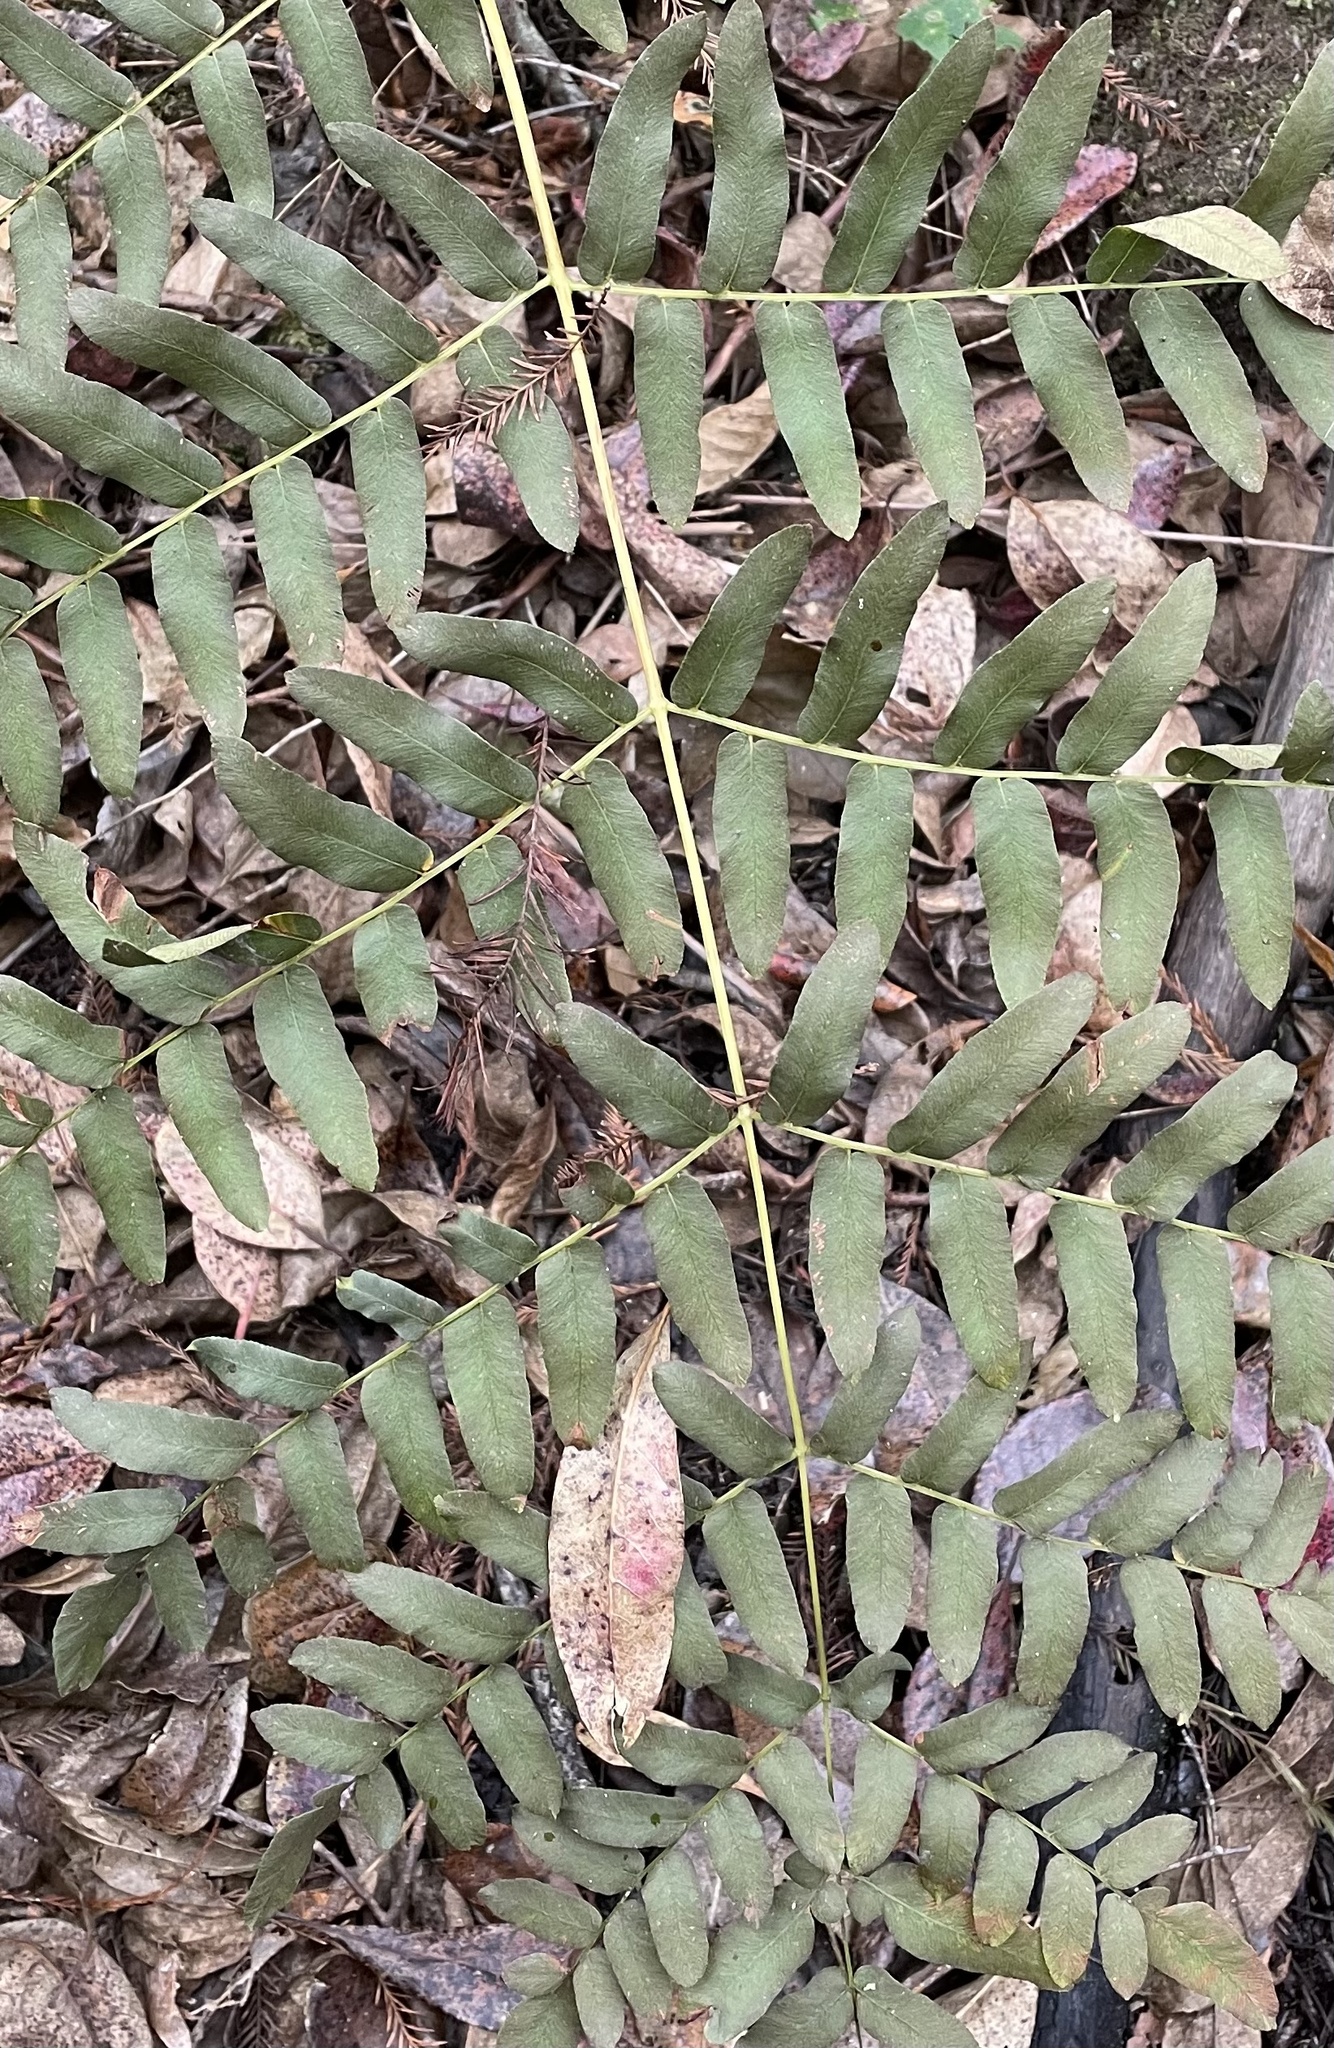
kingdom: Plantae
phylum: Tracheophyta
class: Polypodiopsida
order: Osmundales
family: Osmundaceae
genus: Osmunda
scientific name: Osmunda spectabilis
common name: American royal fern
